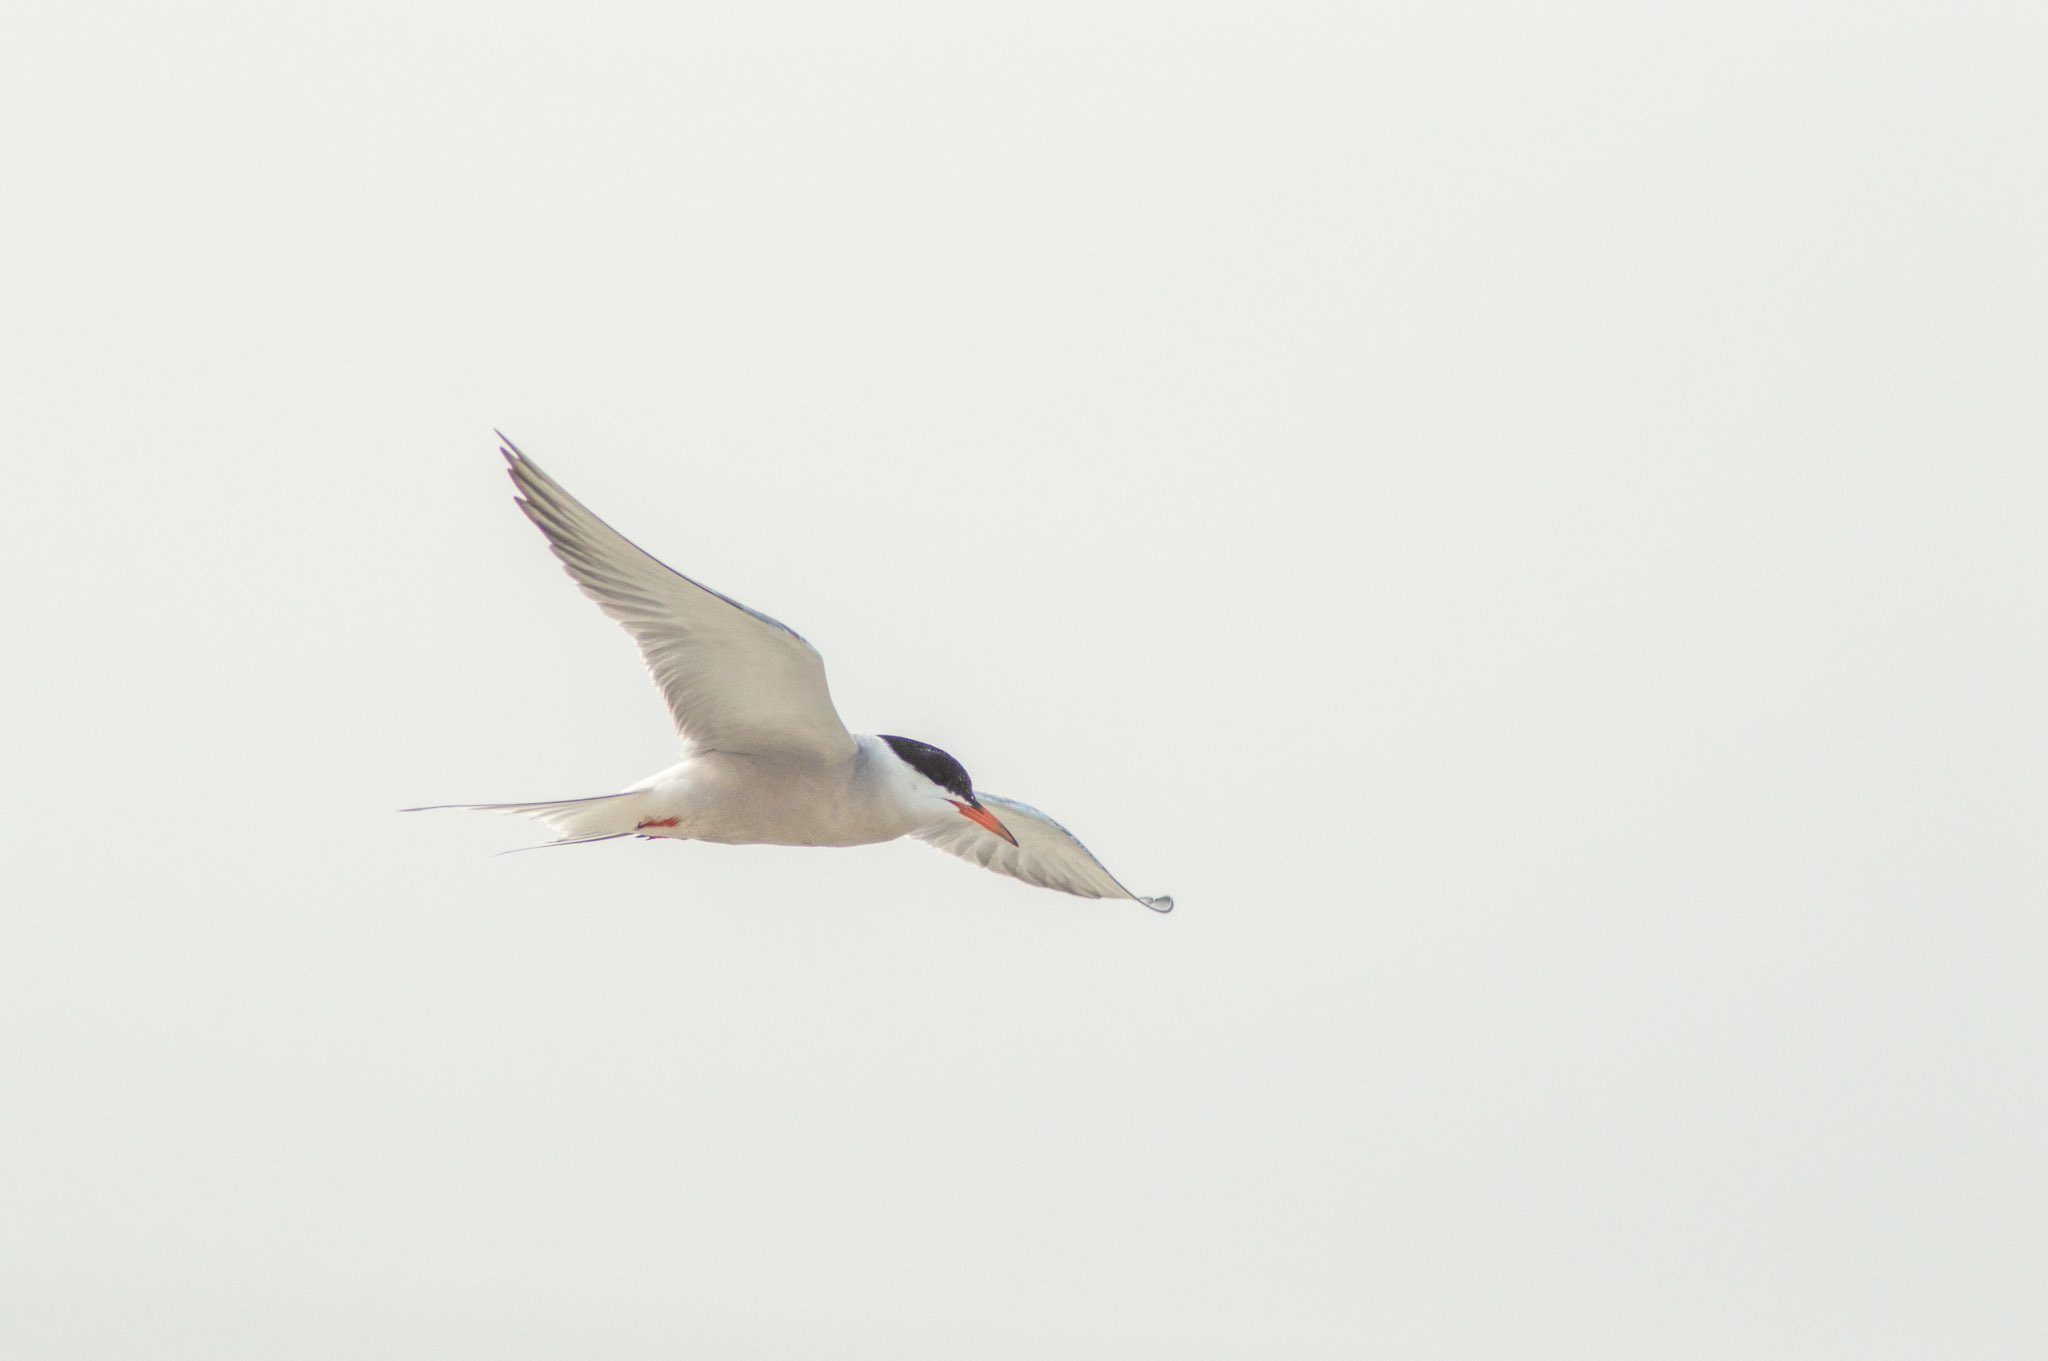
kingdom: Animalia
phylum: Chordata
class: Aves
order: Charadriiformes
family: Laridae
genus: Sterna
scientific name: Sterna hirundo
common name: Common tern
